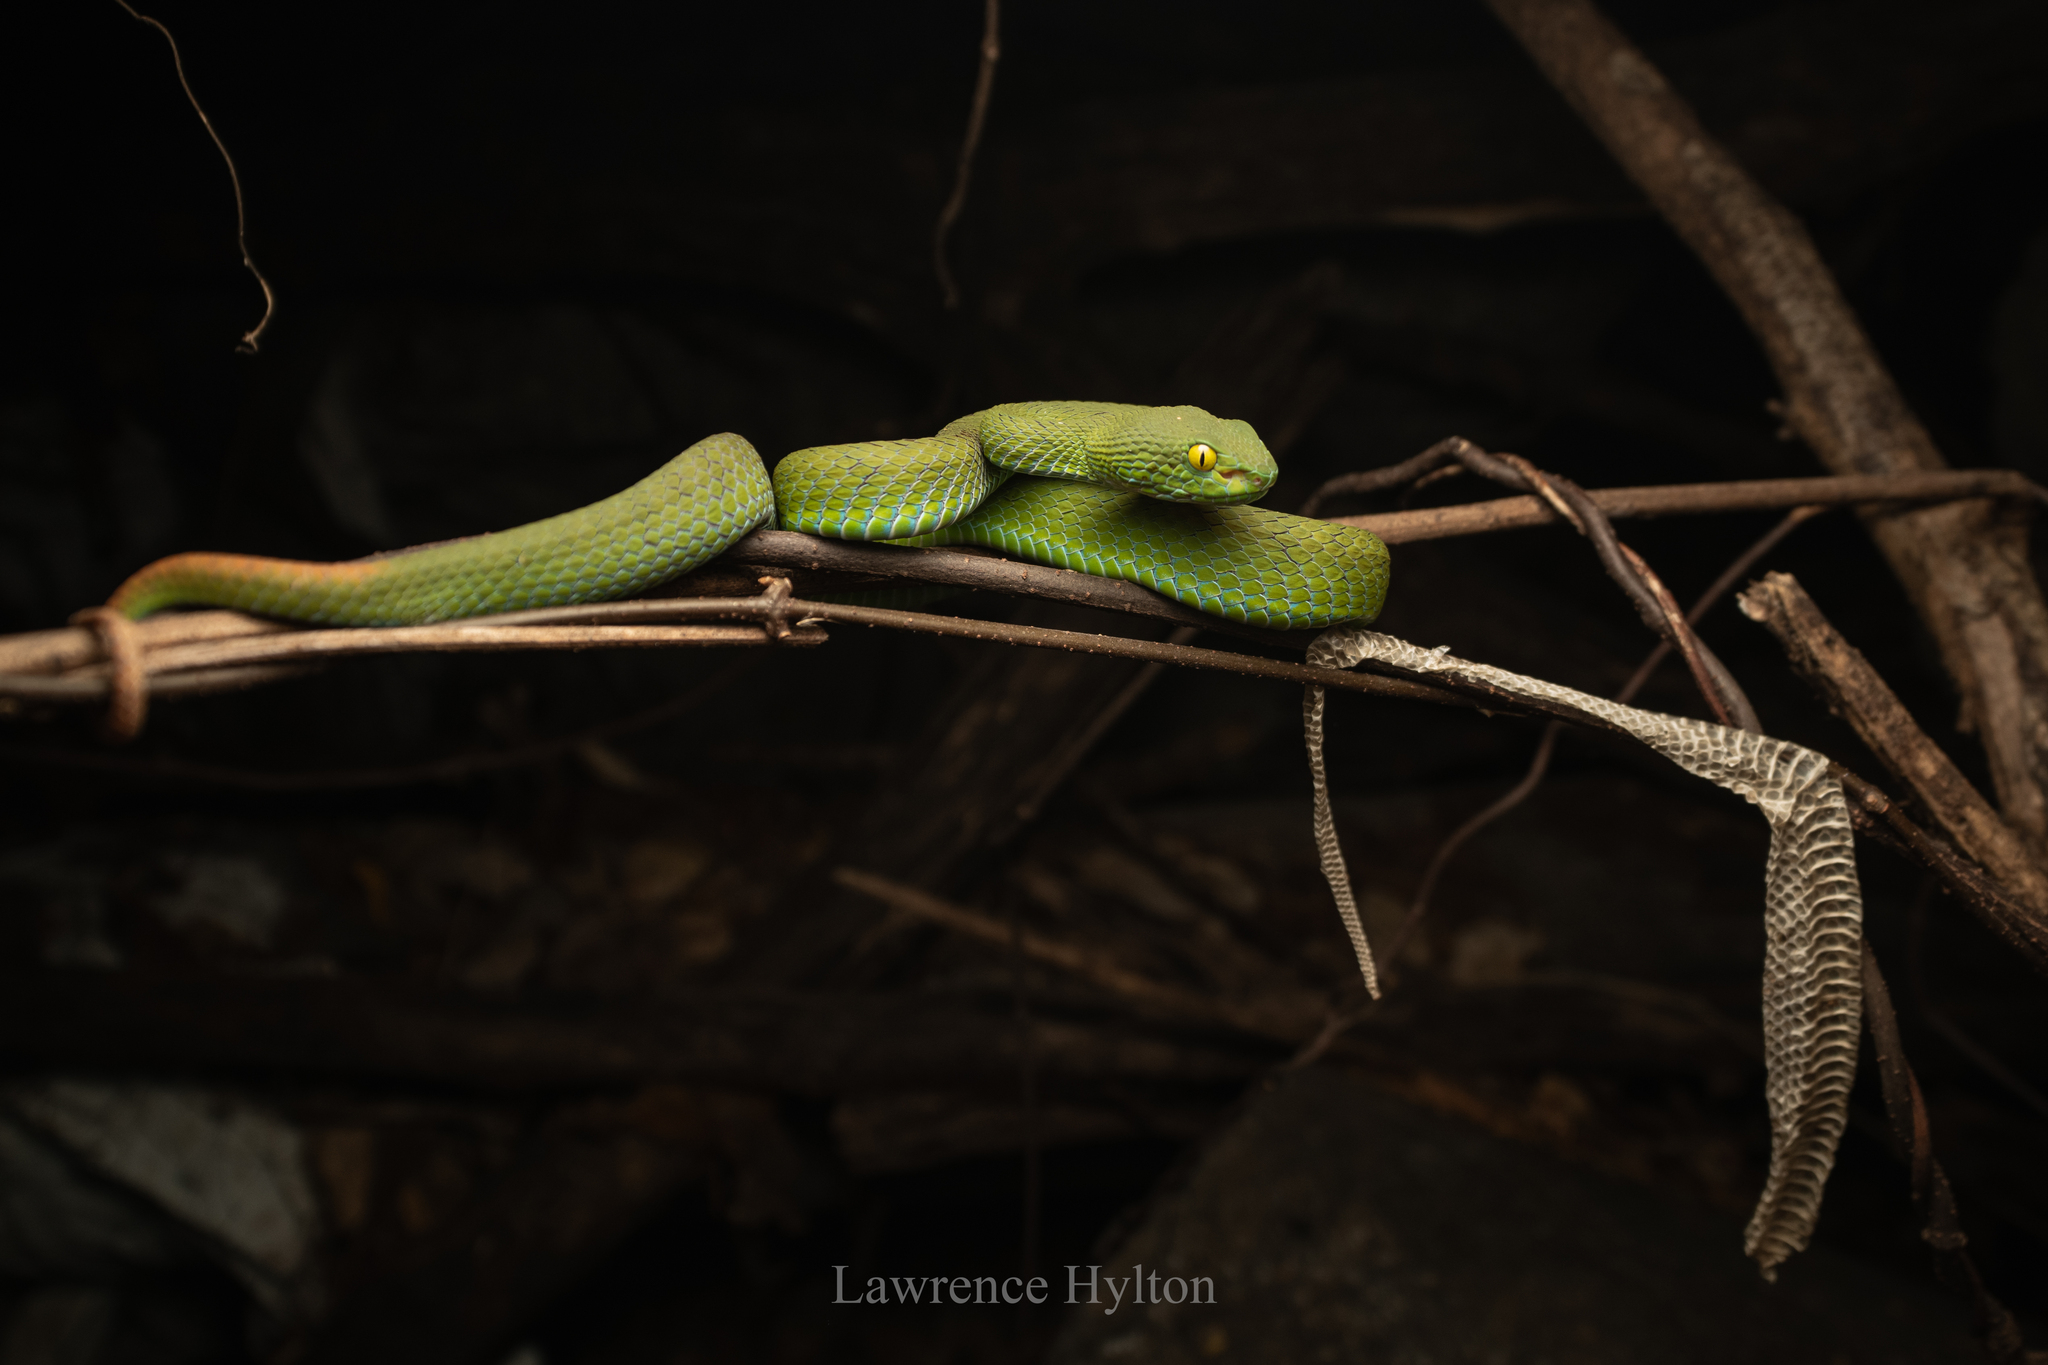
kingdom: Animalia
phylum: Chordata
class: Squamata
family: Viperidae
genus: Trimeresurus
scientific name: Trimeresurus macrops
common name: Kramer's pit viper
